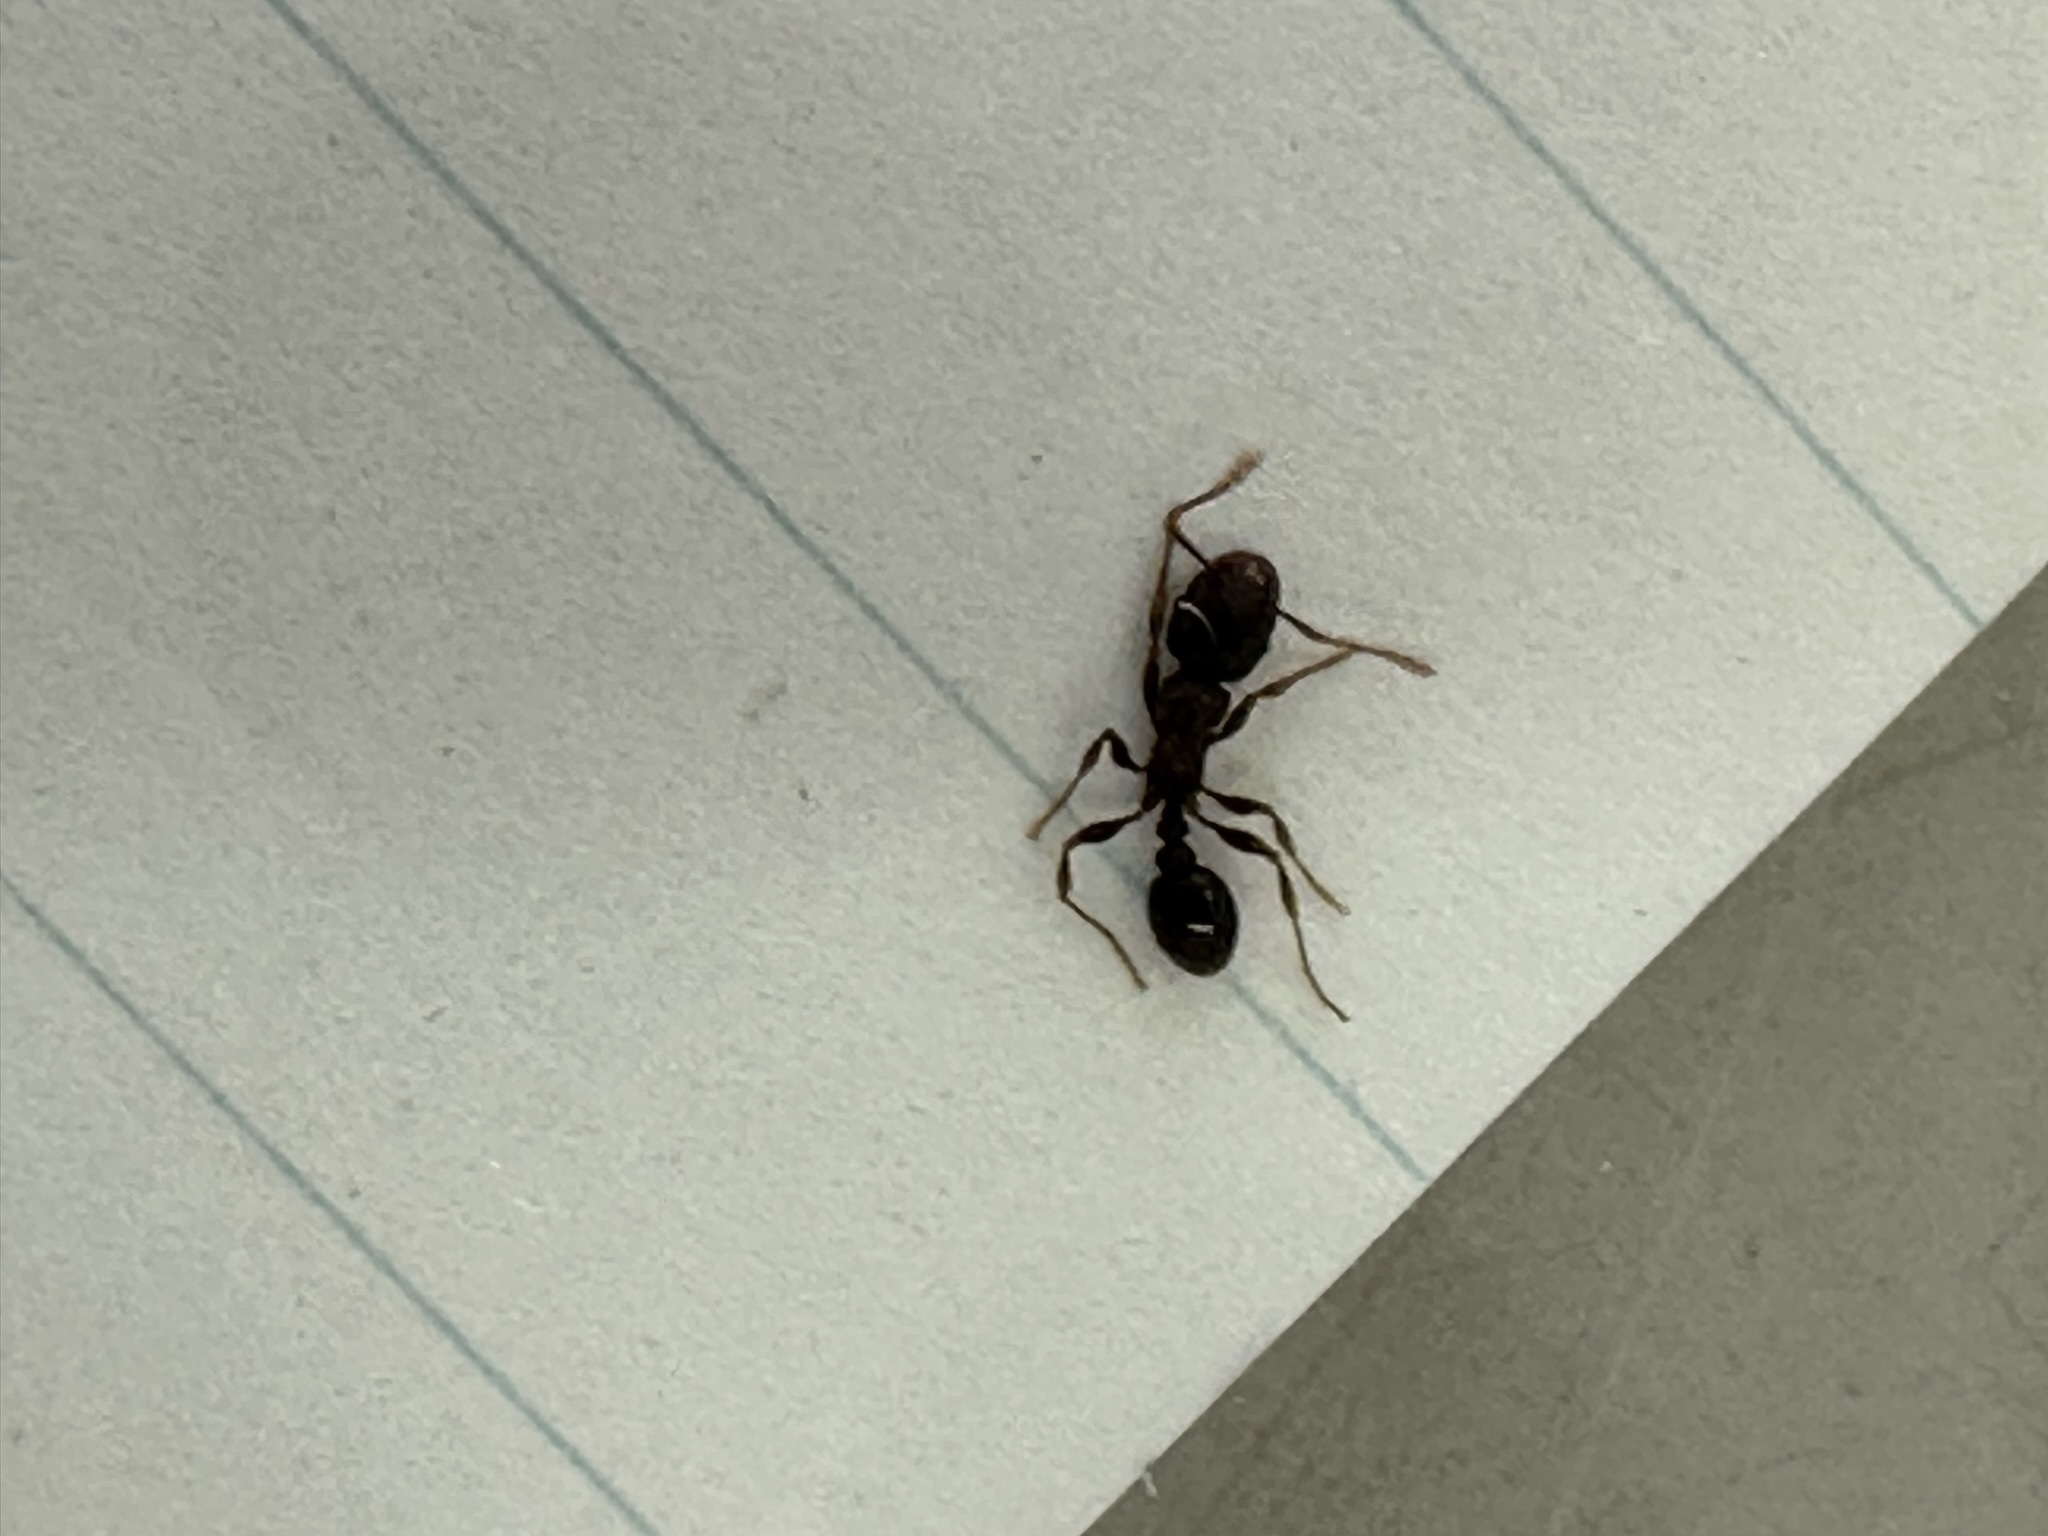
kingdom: Animalia
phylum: Arthropoda
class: Insecta
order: Hymenoptera
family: Formicidae
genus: Tetramorium
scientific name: Tetramorium tsushimae
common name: Ant
